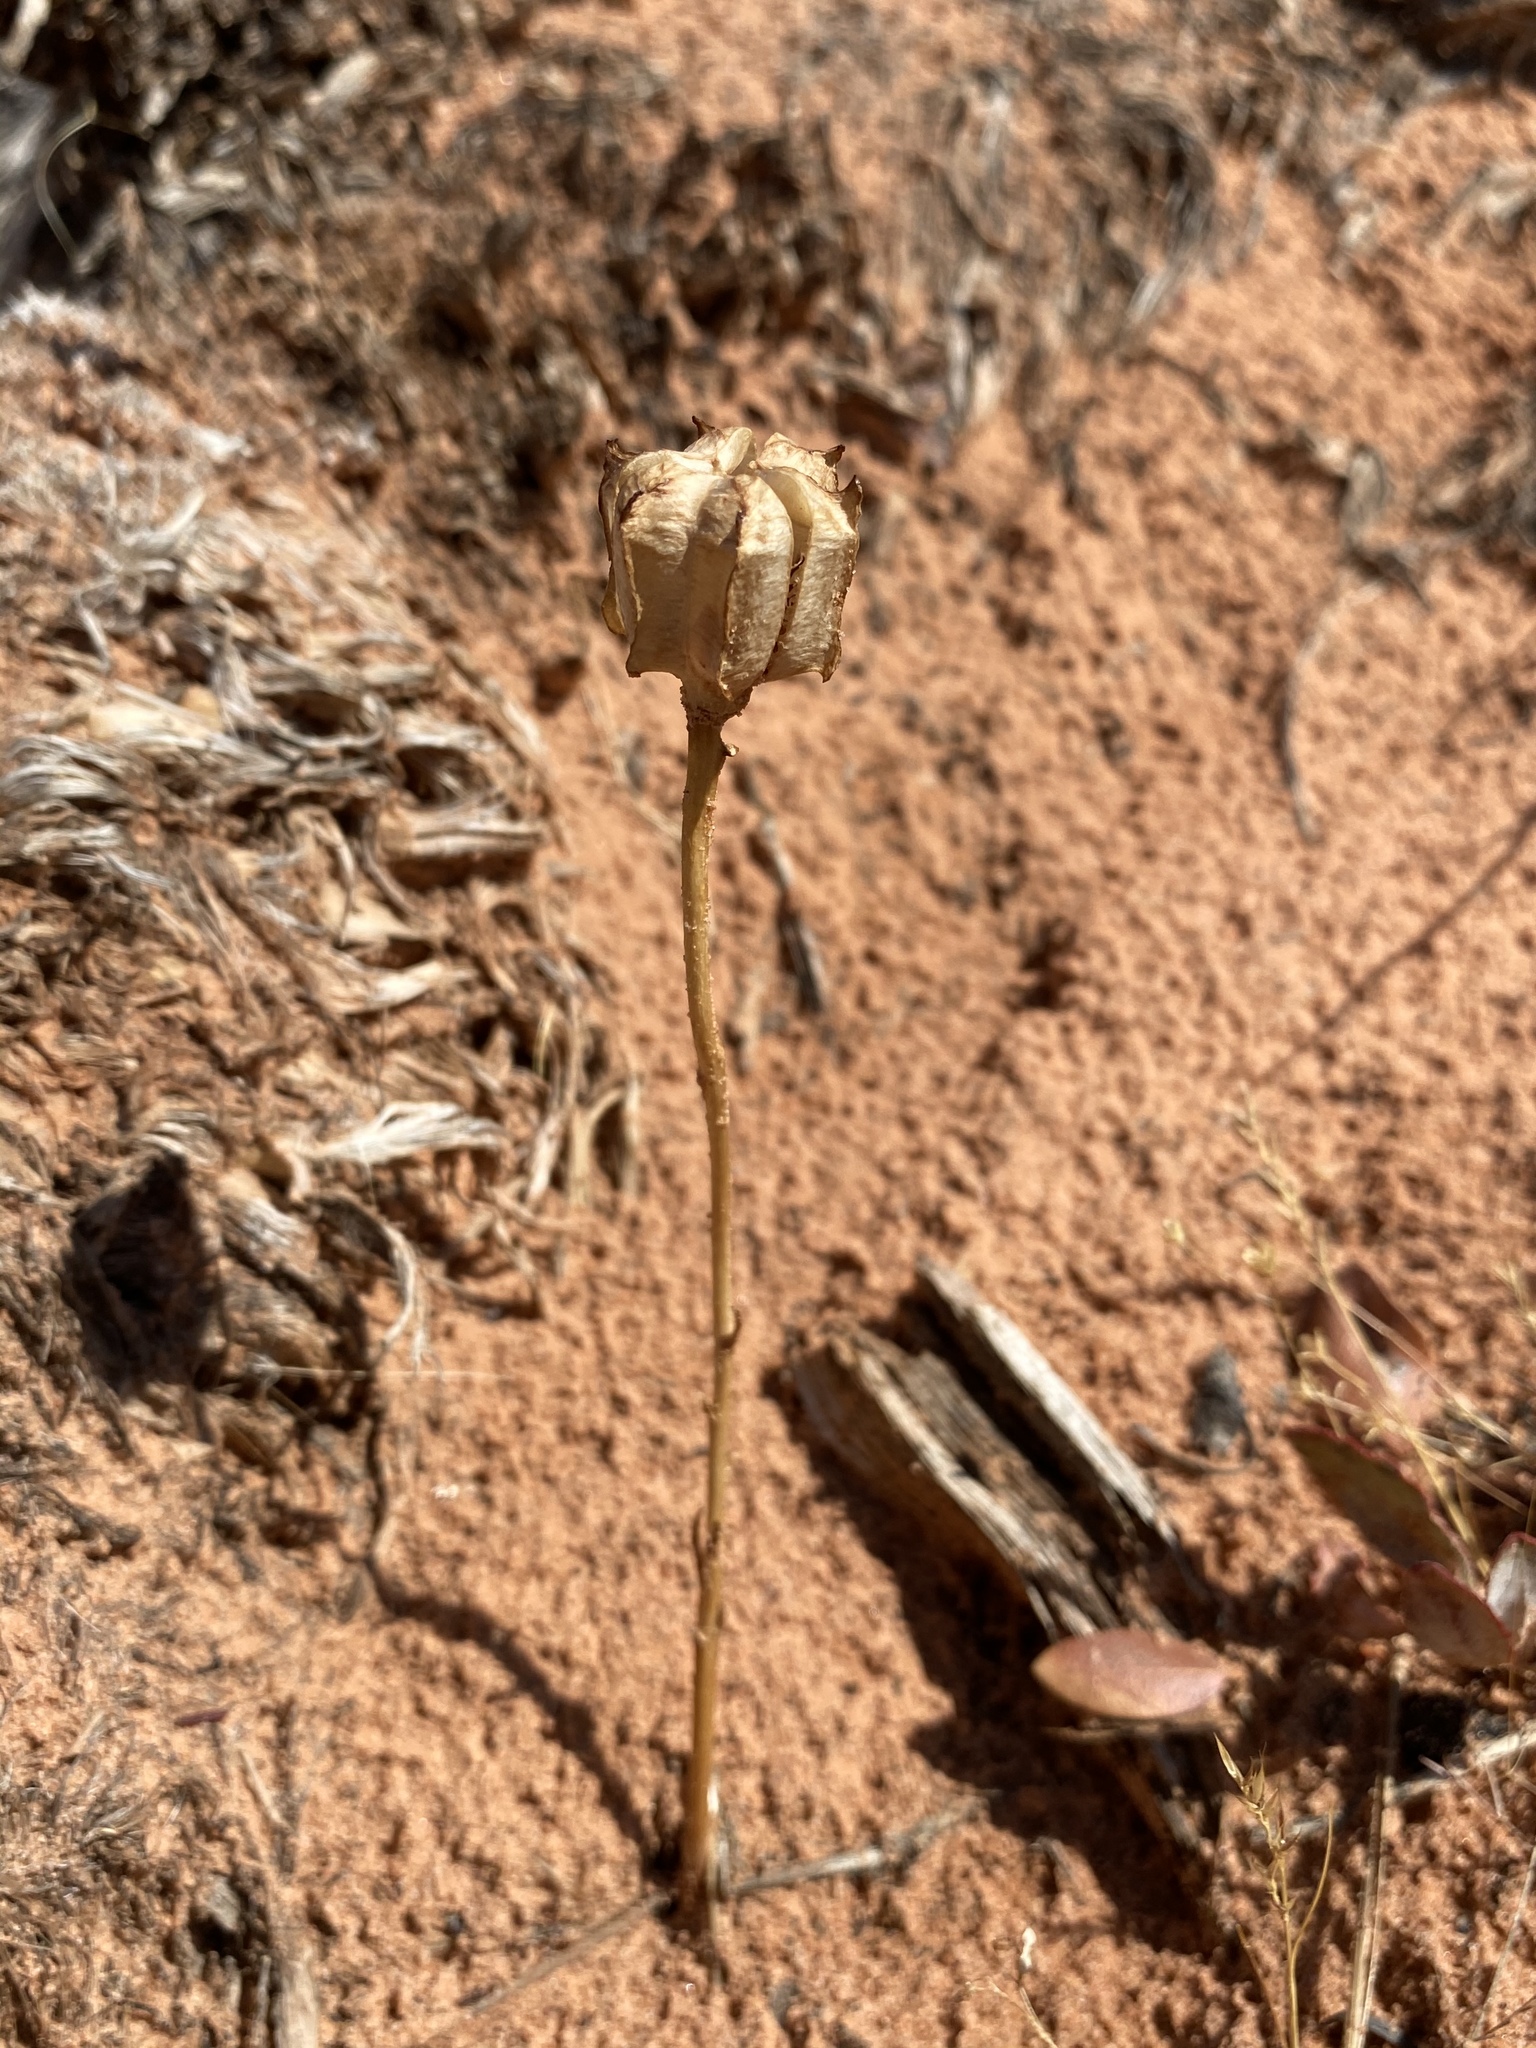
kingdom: Plantae
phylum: Tracheophyta
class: Liliopsida
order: Liliales
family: Liliaceae
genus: Fritillaria
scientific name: Fritillaria atropurpurea
